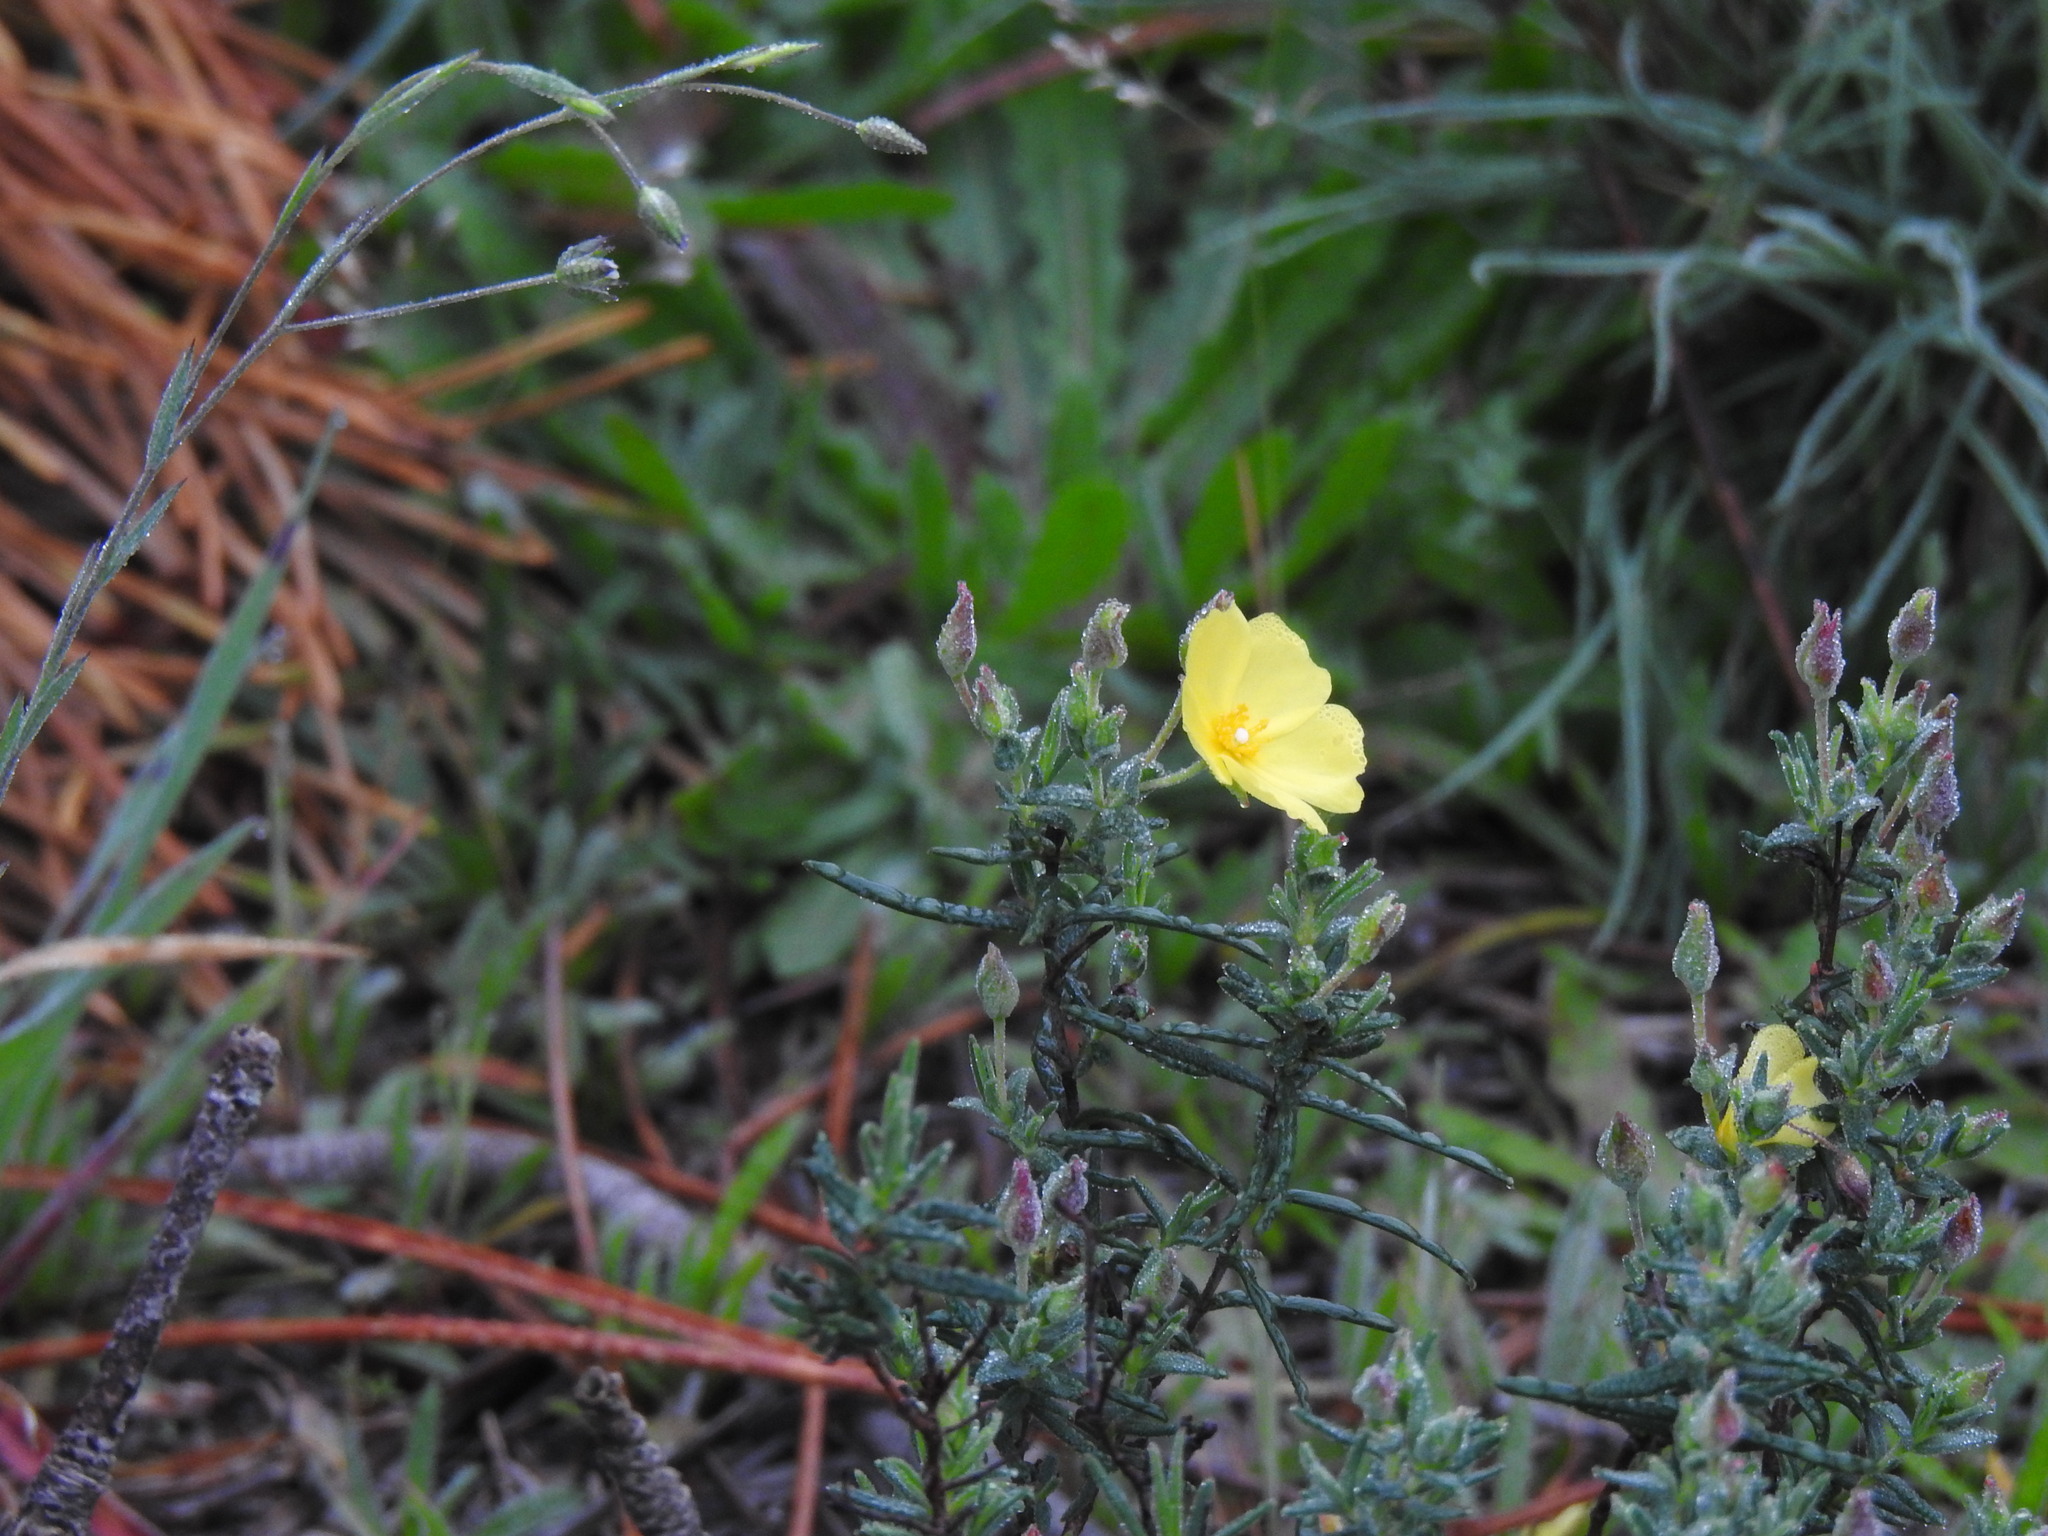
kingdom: Plantae
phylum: Tracheophyta
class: Magnoliopsida
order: Malvales
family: Cistaceae
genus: Halimium
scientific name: Halimium calycinum
